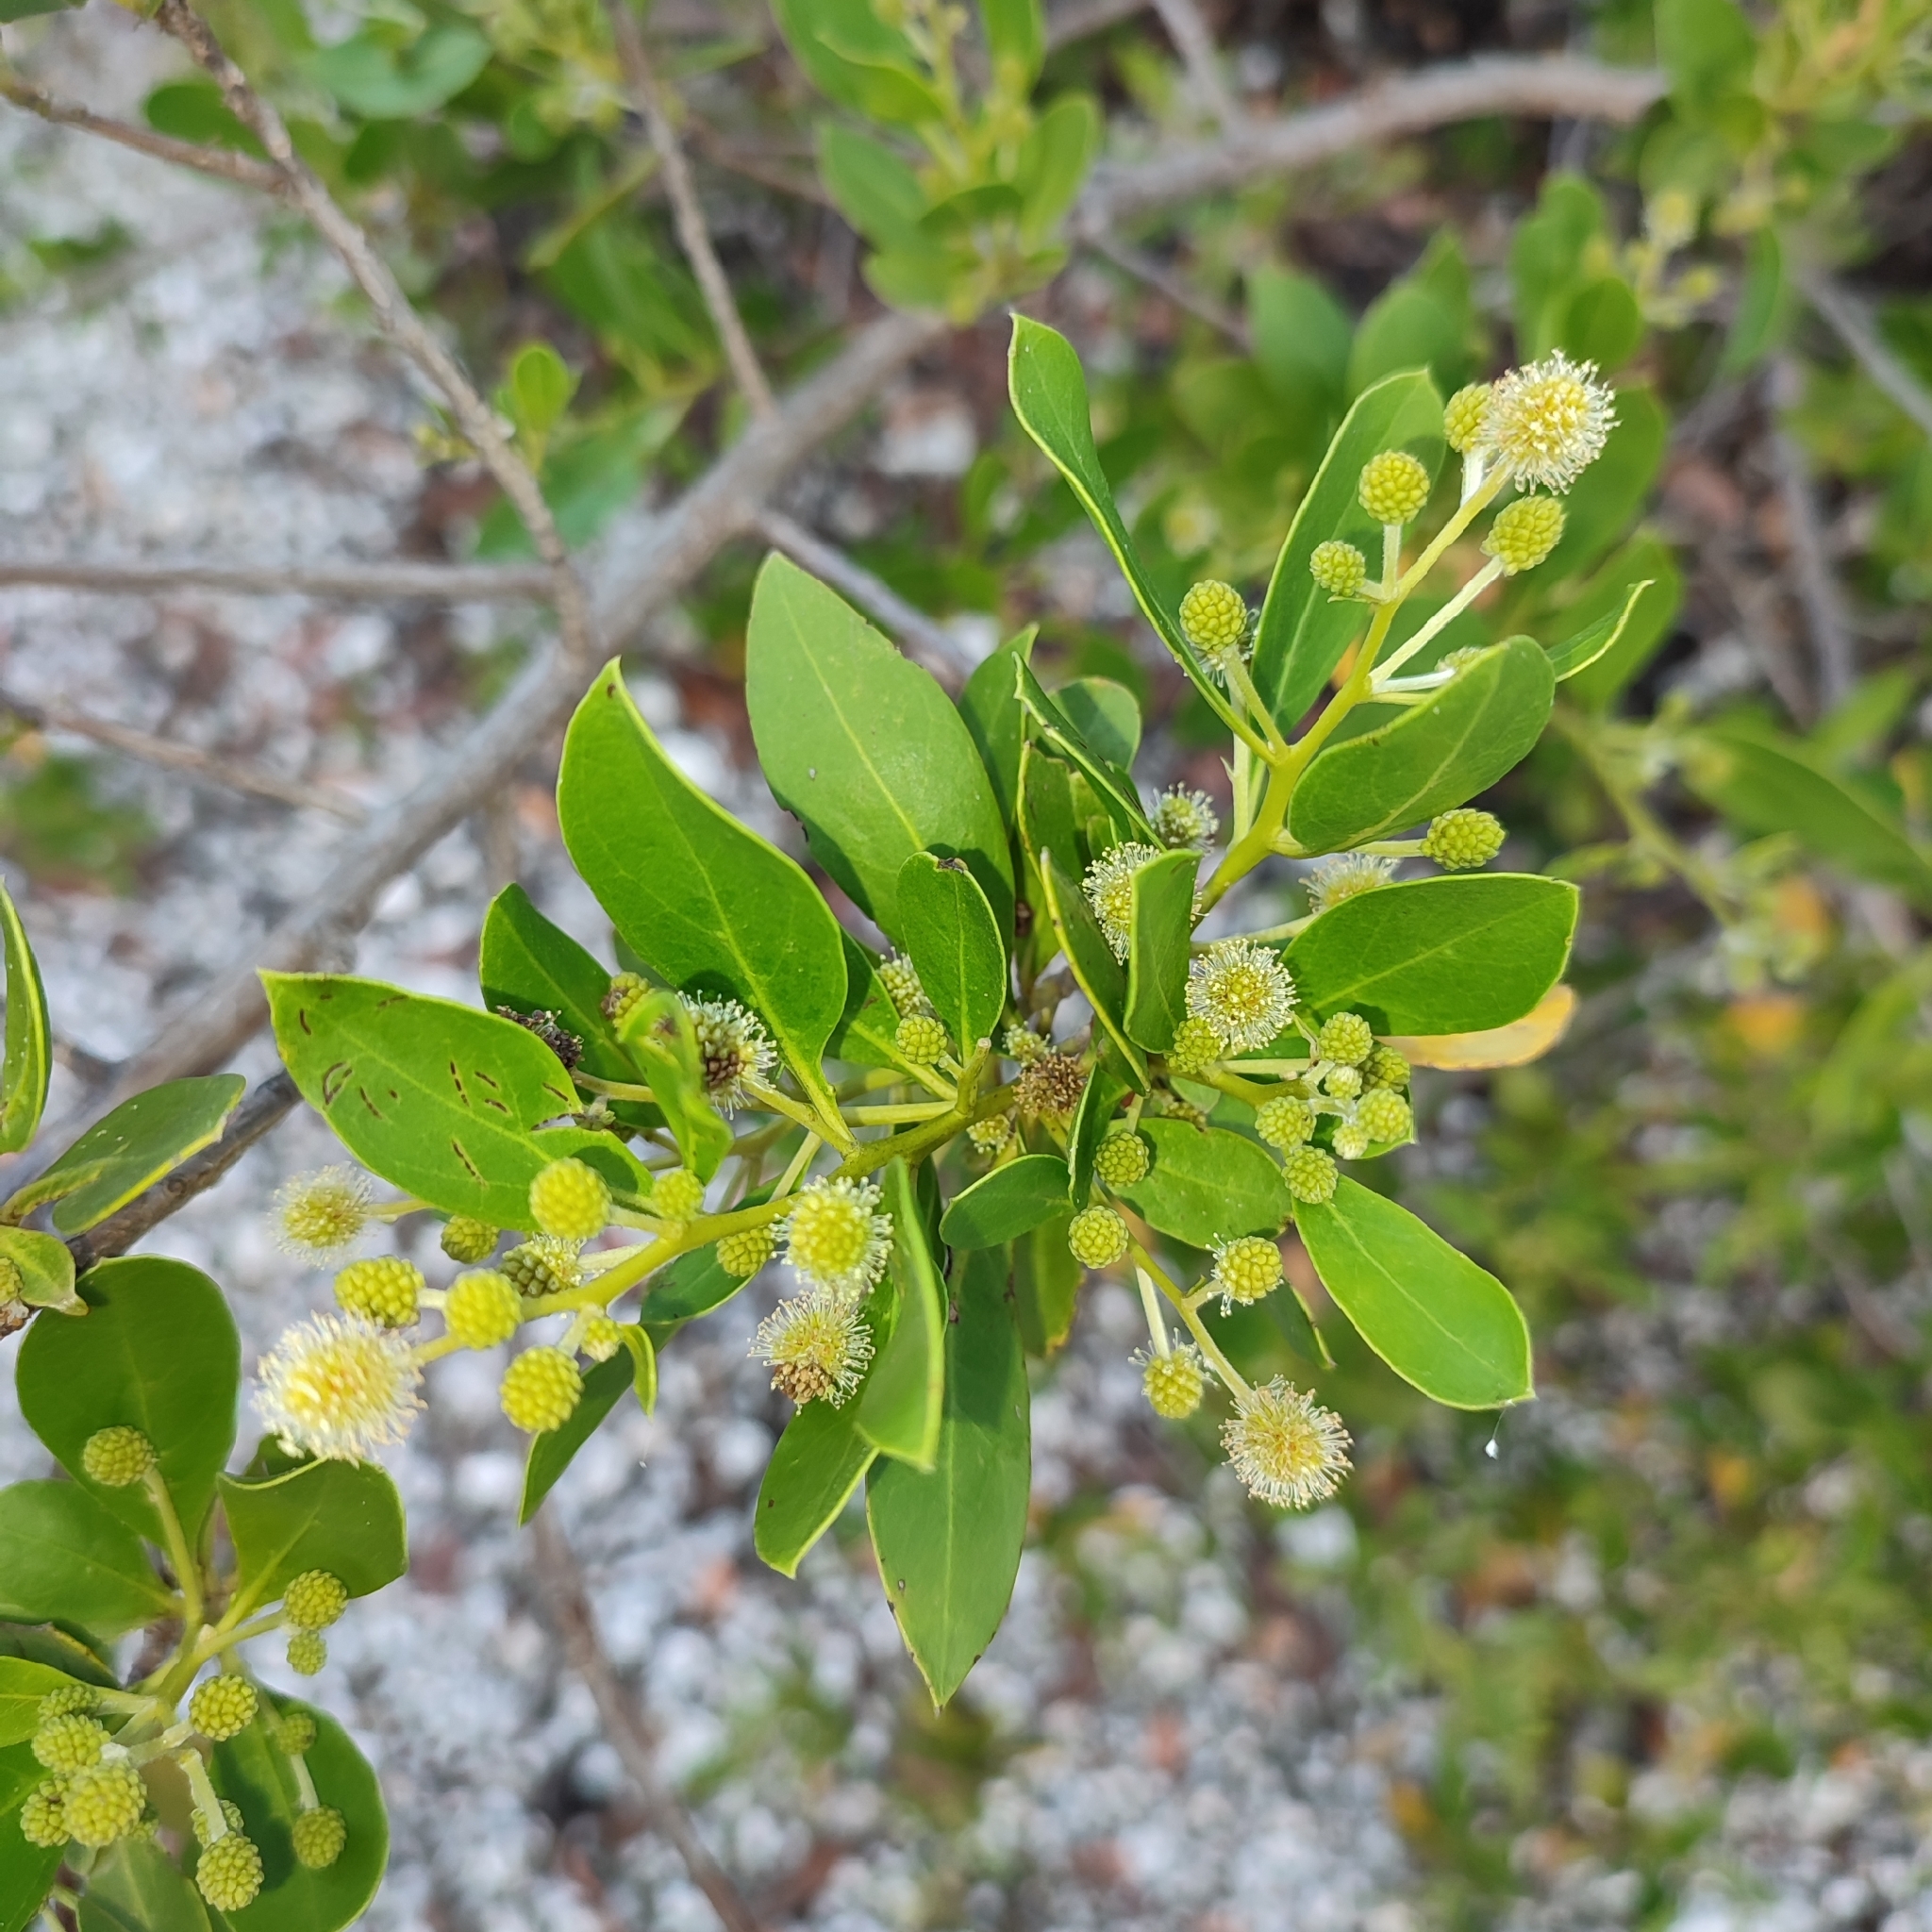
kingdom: Plantae
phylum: Tracheophyta
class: Magnoliopsida
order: Myrtales
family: Combretaceae
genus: Conocarpus
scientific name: Conocarpus erectus
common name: Button mangrove
